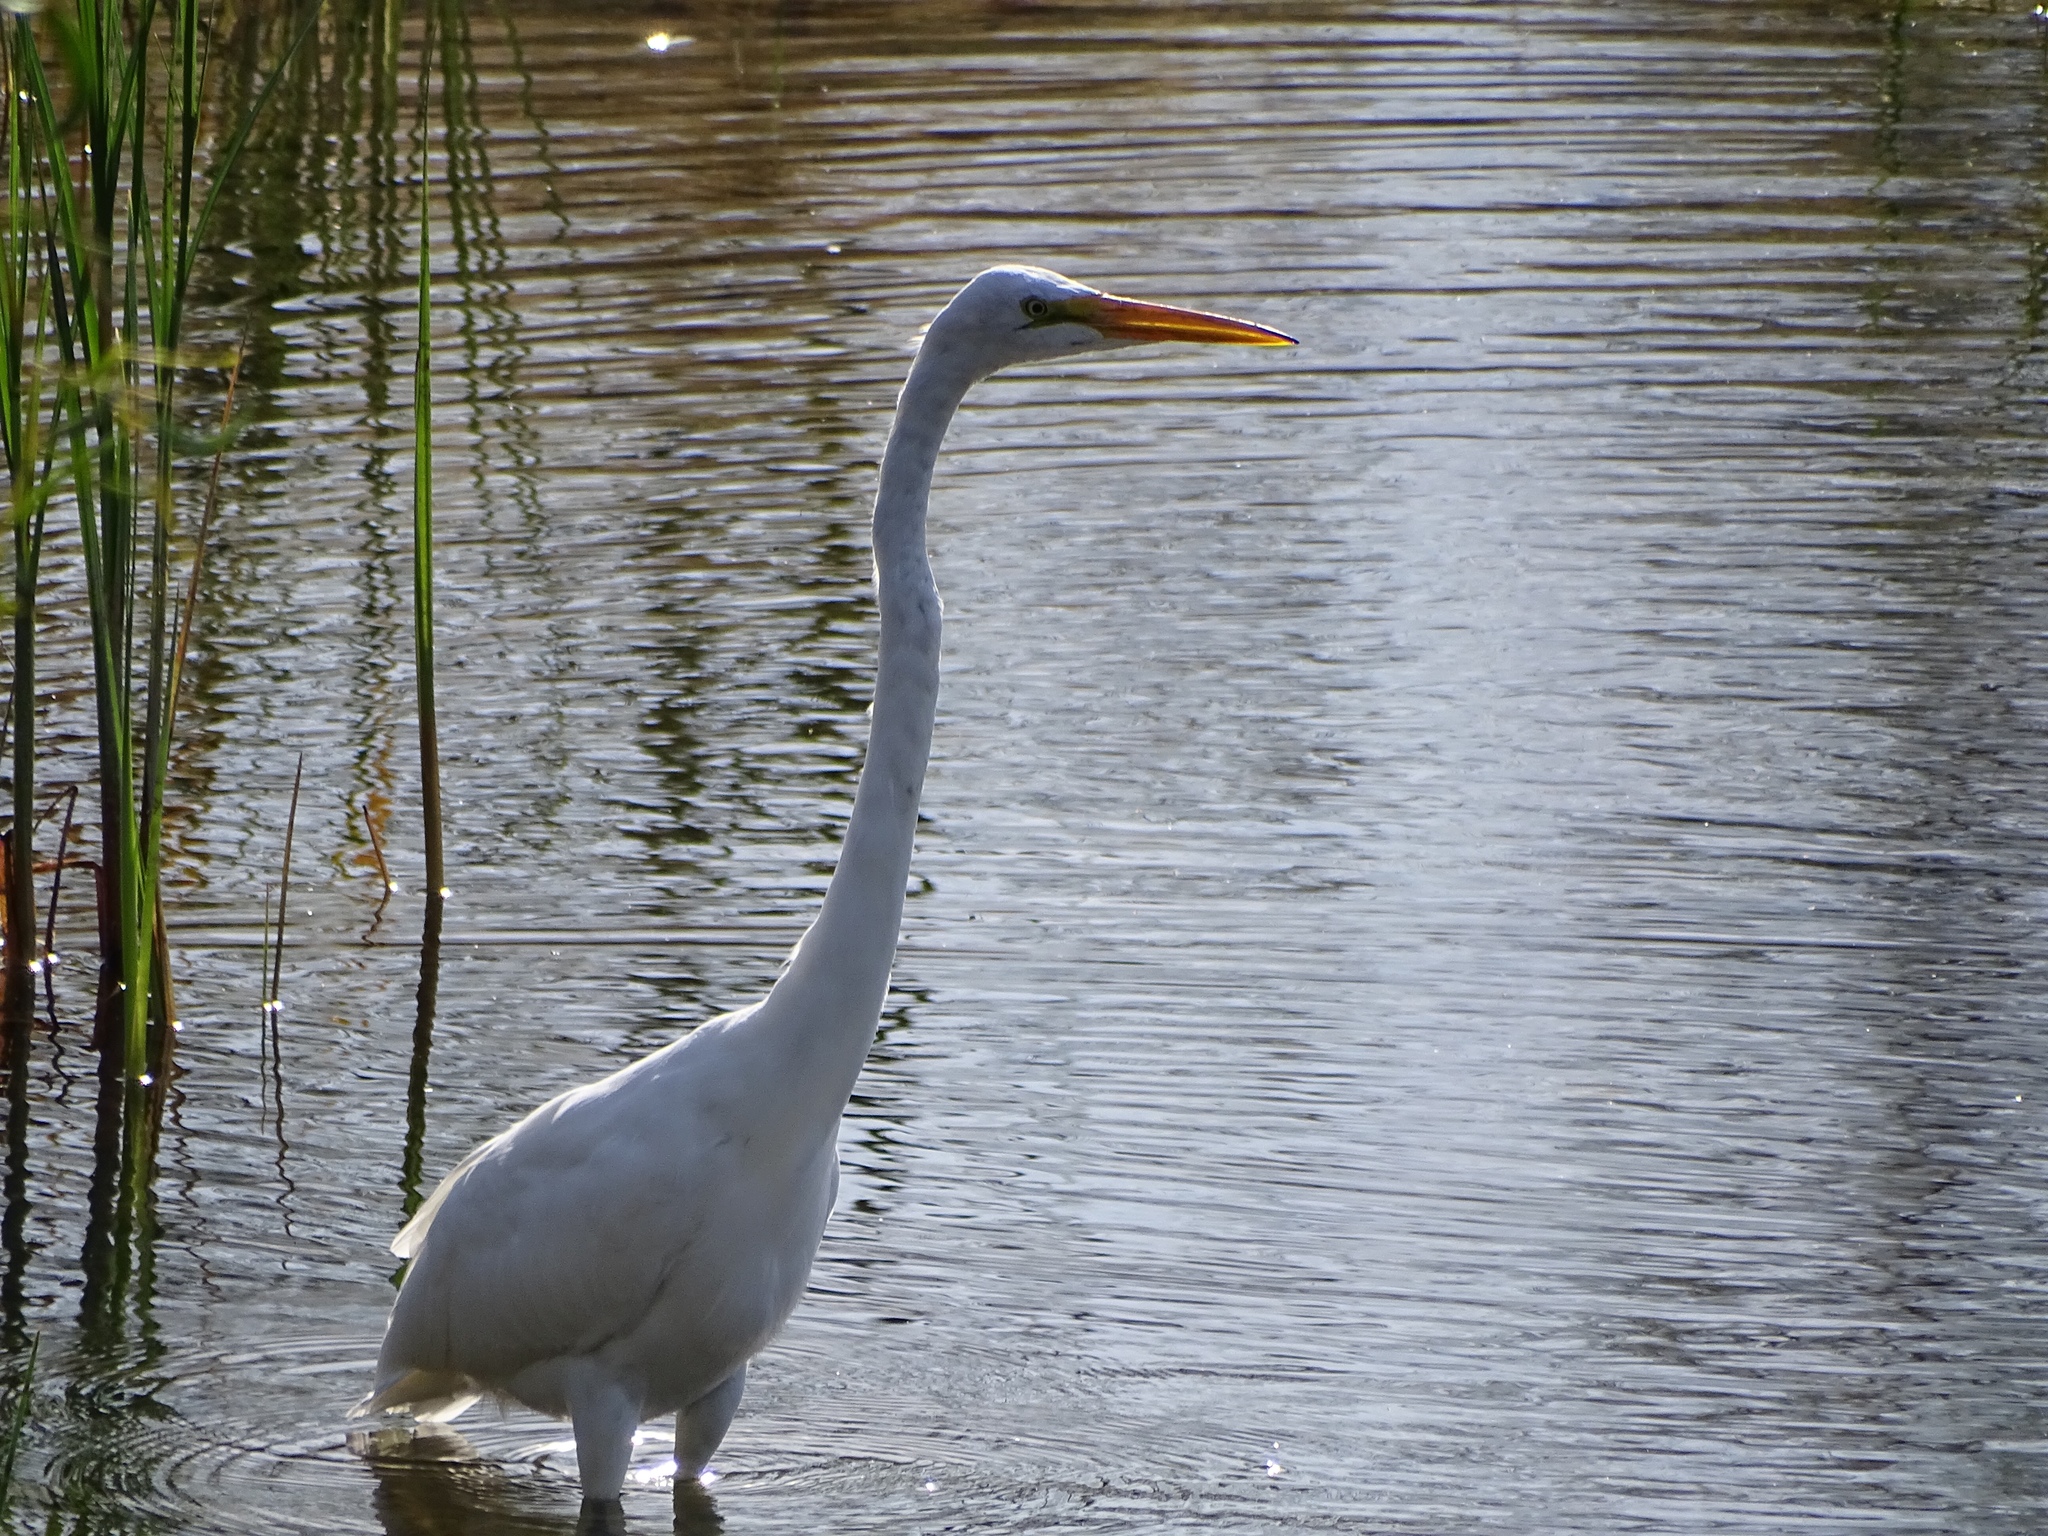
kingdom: Animalia
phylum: Chordata
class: Aves
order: Pelecaniformes
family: Ardeidae
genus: Ardea
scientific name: Ardea alba
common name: Great egret
